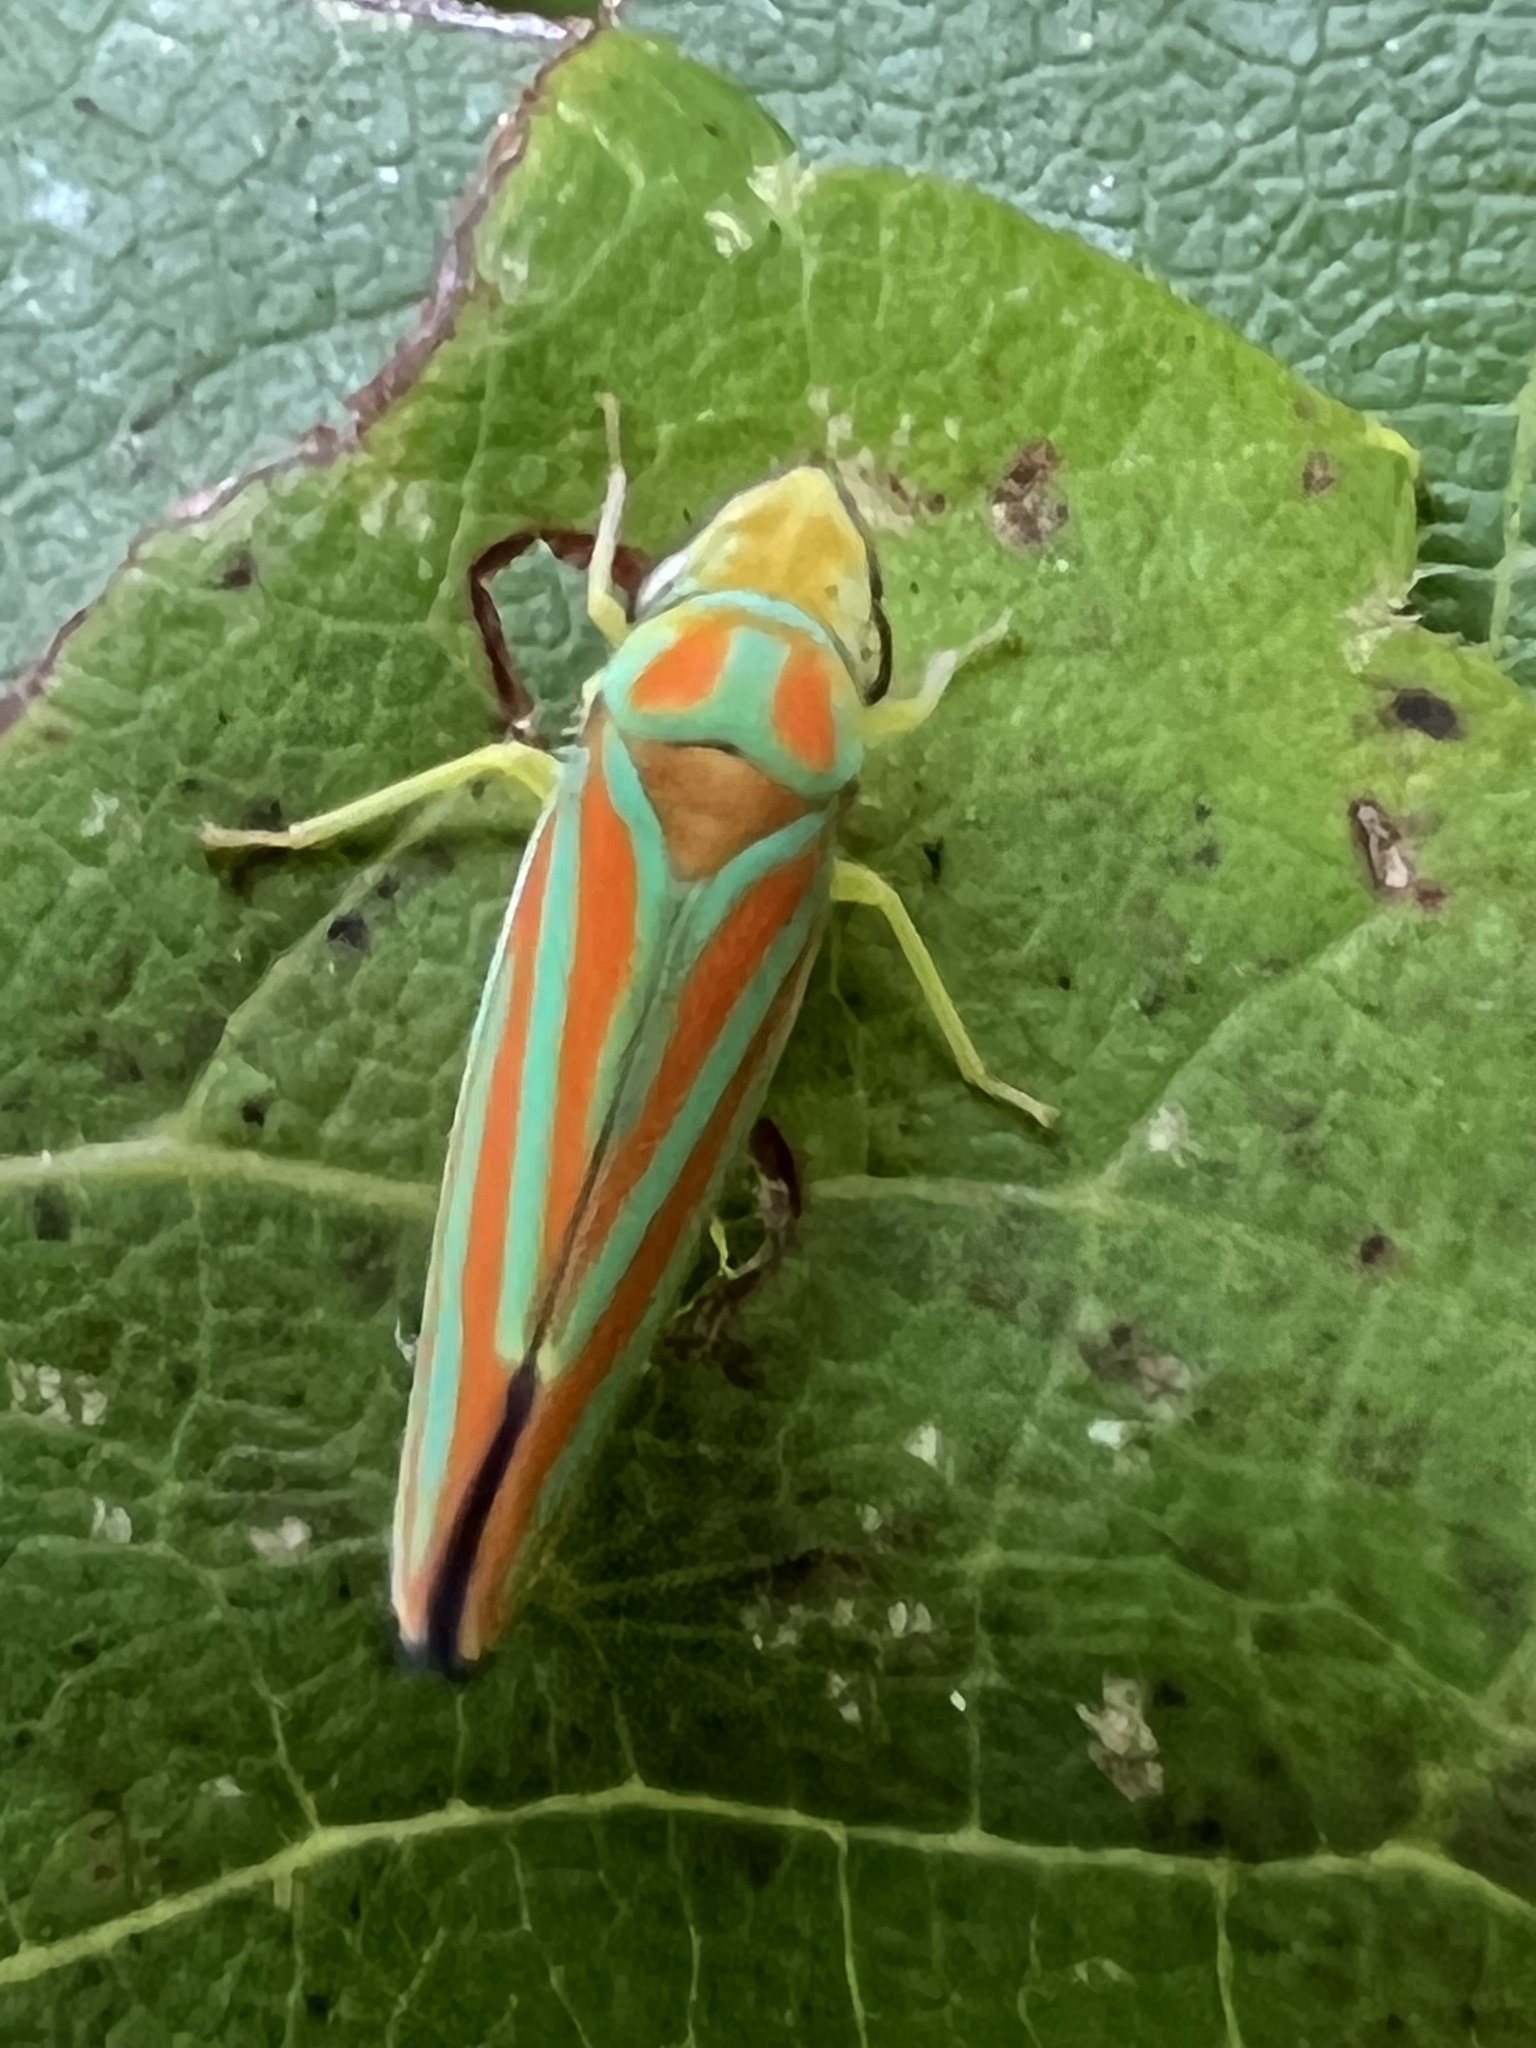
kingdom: Animalia
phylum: Arthropoda
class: Insecta
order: Hemiptera
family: Cicadellidae
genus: Graphocephala
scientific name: Graphocephala coccinea
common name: Candy-striped leafhopper
